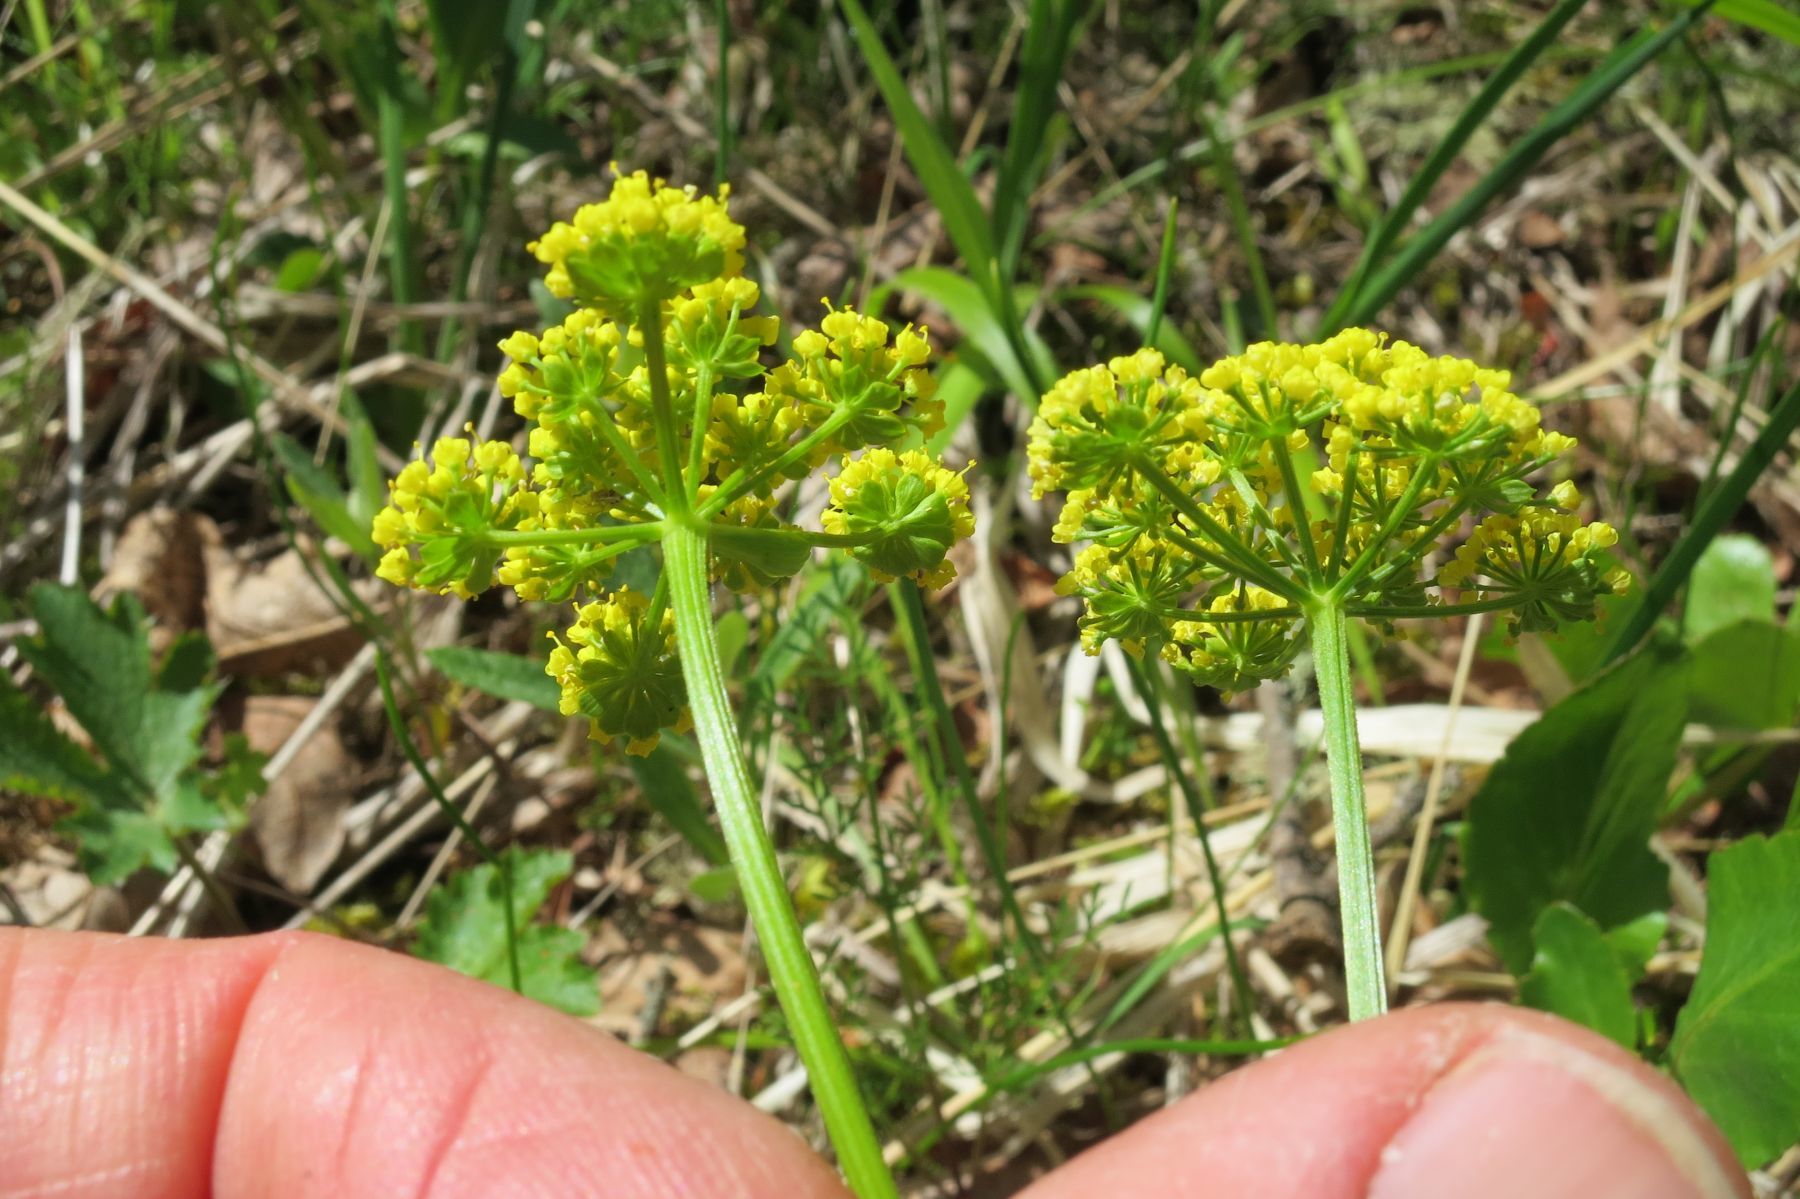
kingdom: Plantae
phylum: Tracheophyta
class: Magnoliopsida
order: Apiales
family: Apiaceae
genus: Lomatium
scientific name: Lomatium utriculatum
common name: Fine-leaf desert-parsley
